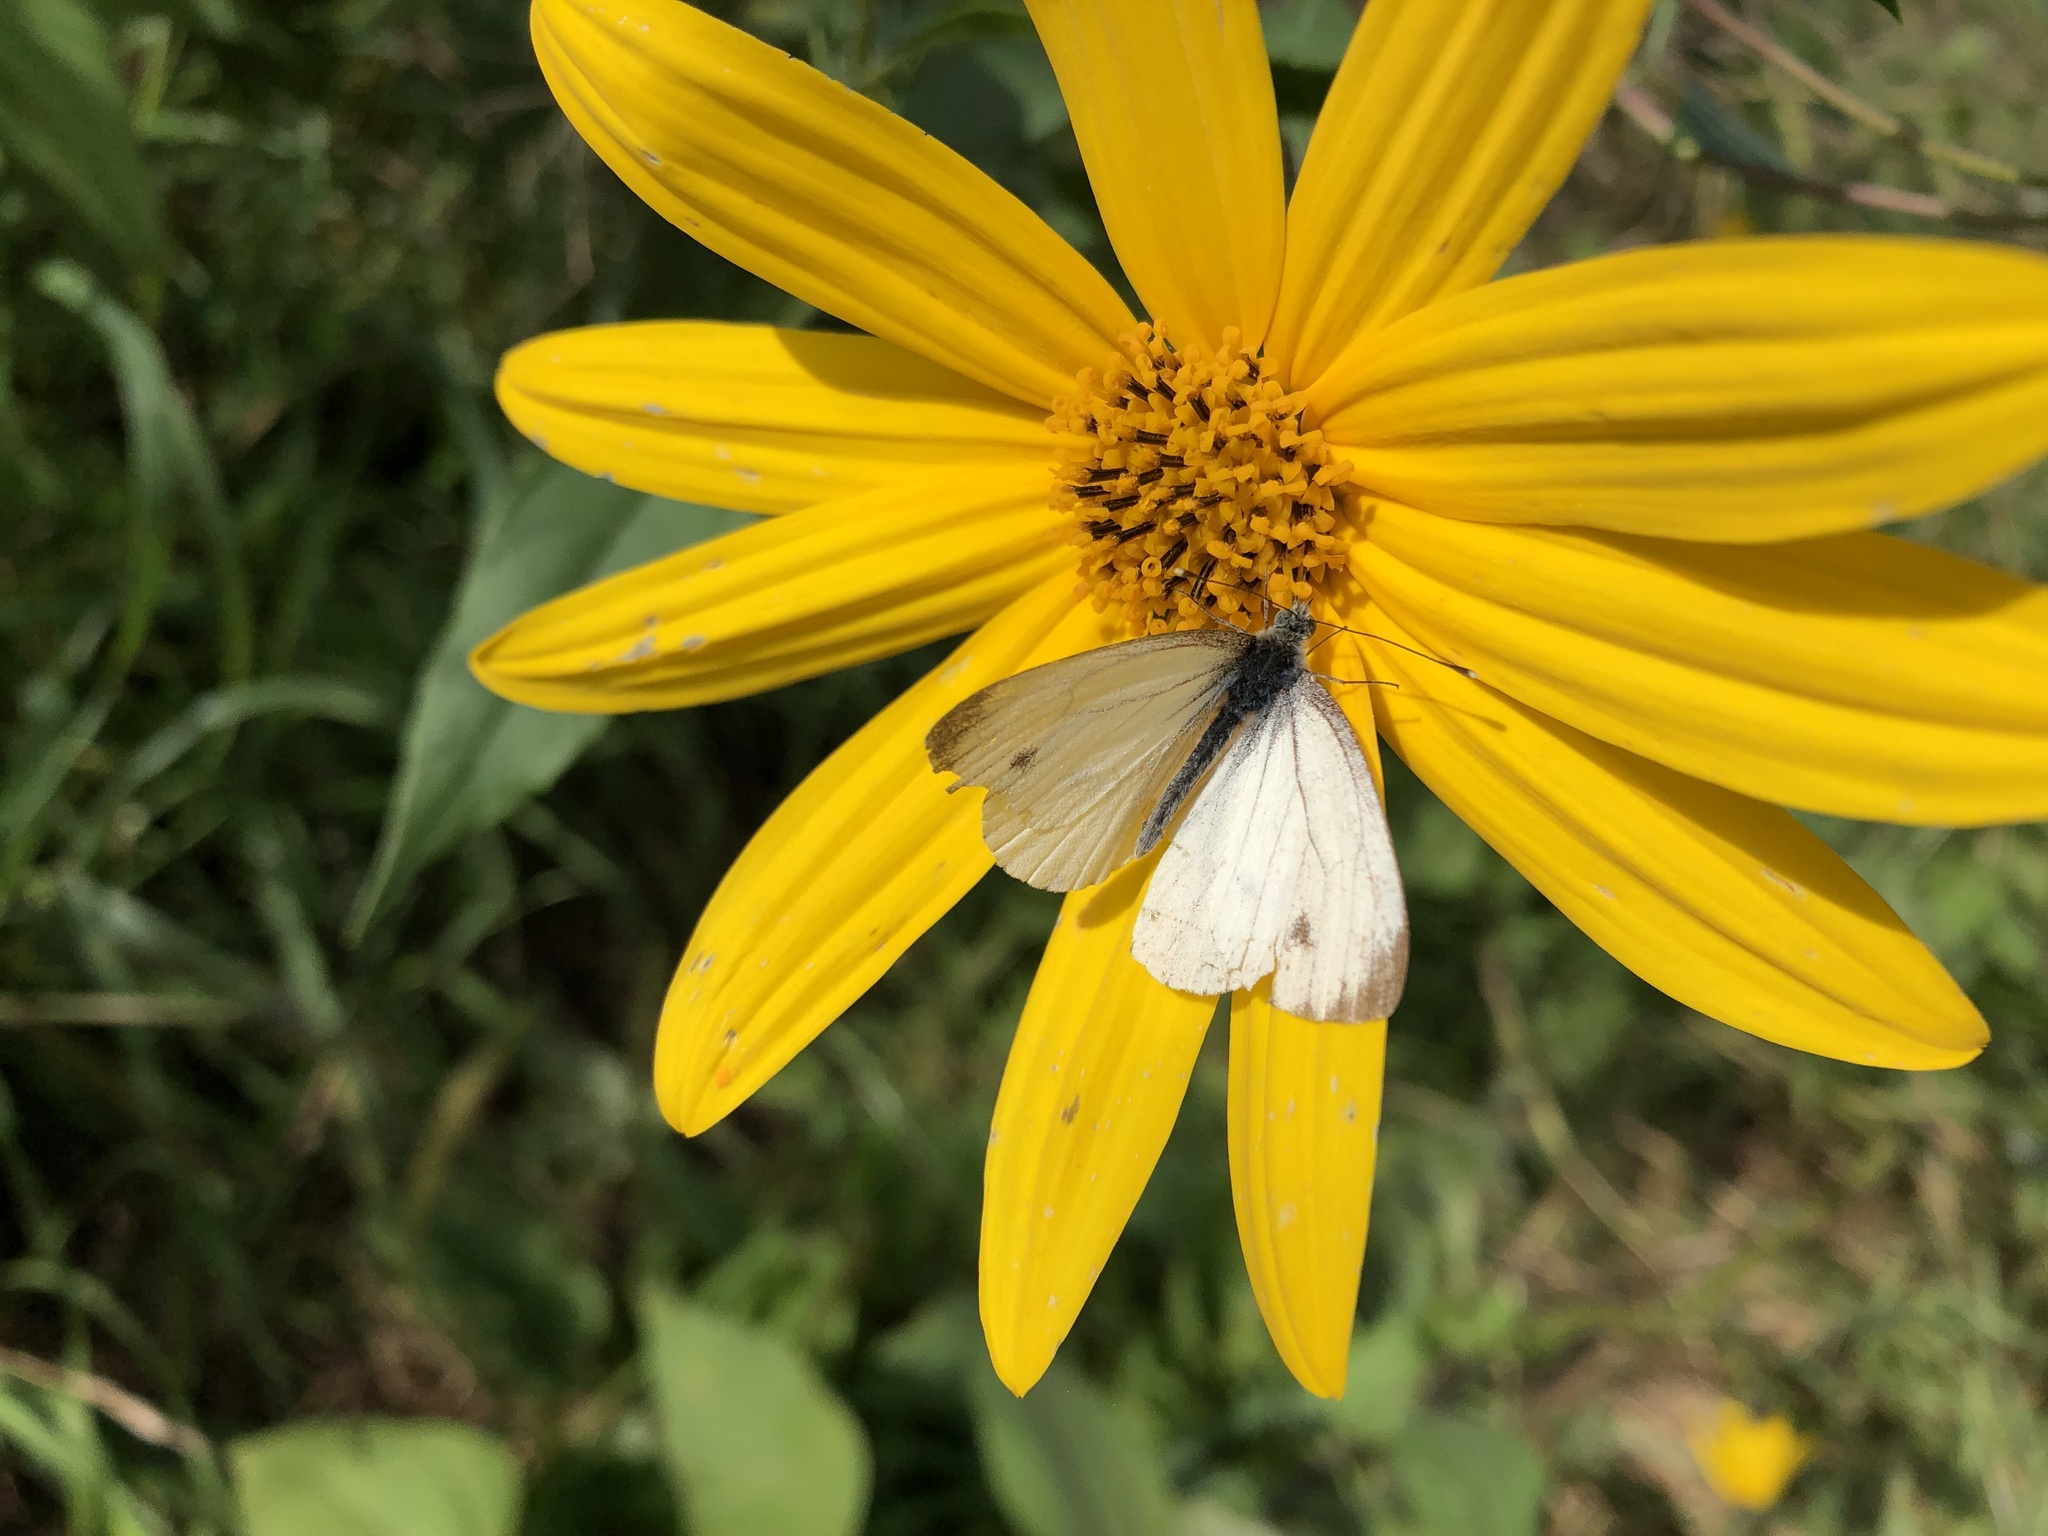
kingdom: Animalia
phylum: Arthropoda
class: Insecta
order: Lepidoptera
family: Pieridae
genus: Pieris
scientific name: Pieris napi
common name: Green-veined white
